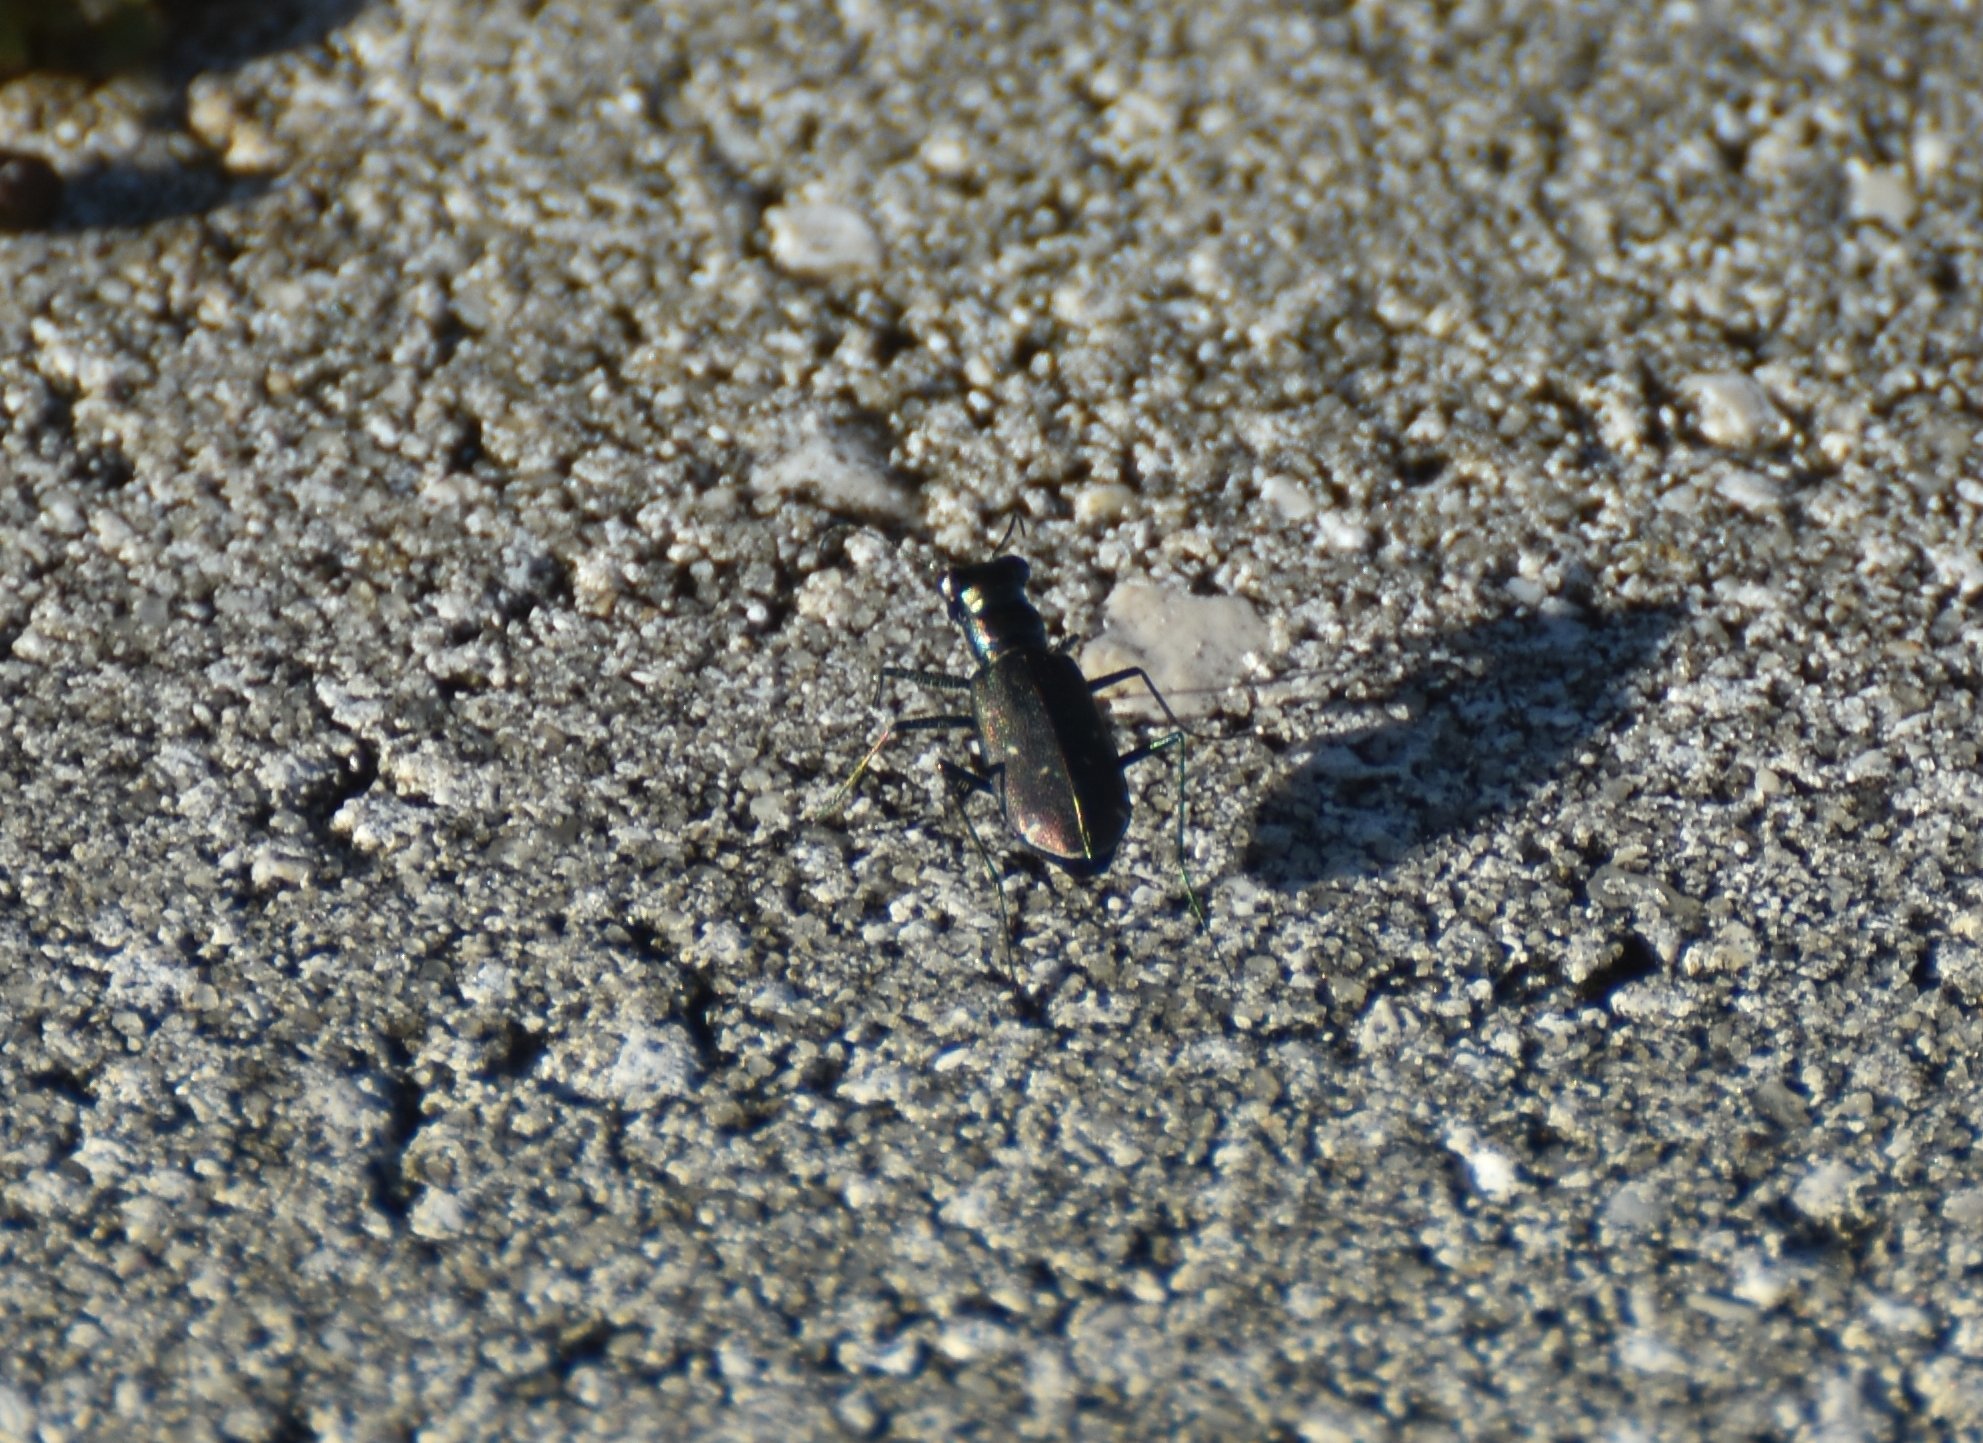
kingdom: Animalia
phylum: Arthropoda
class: Insecta
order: Coleoptera
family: Carabidae
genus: Cicindela
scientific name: Cicindela punctulata
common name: Punctured tiger beetle
